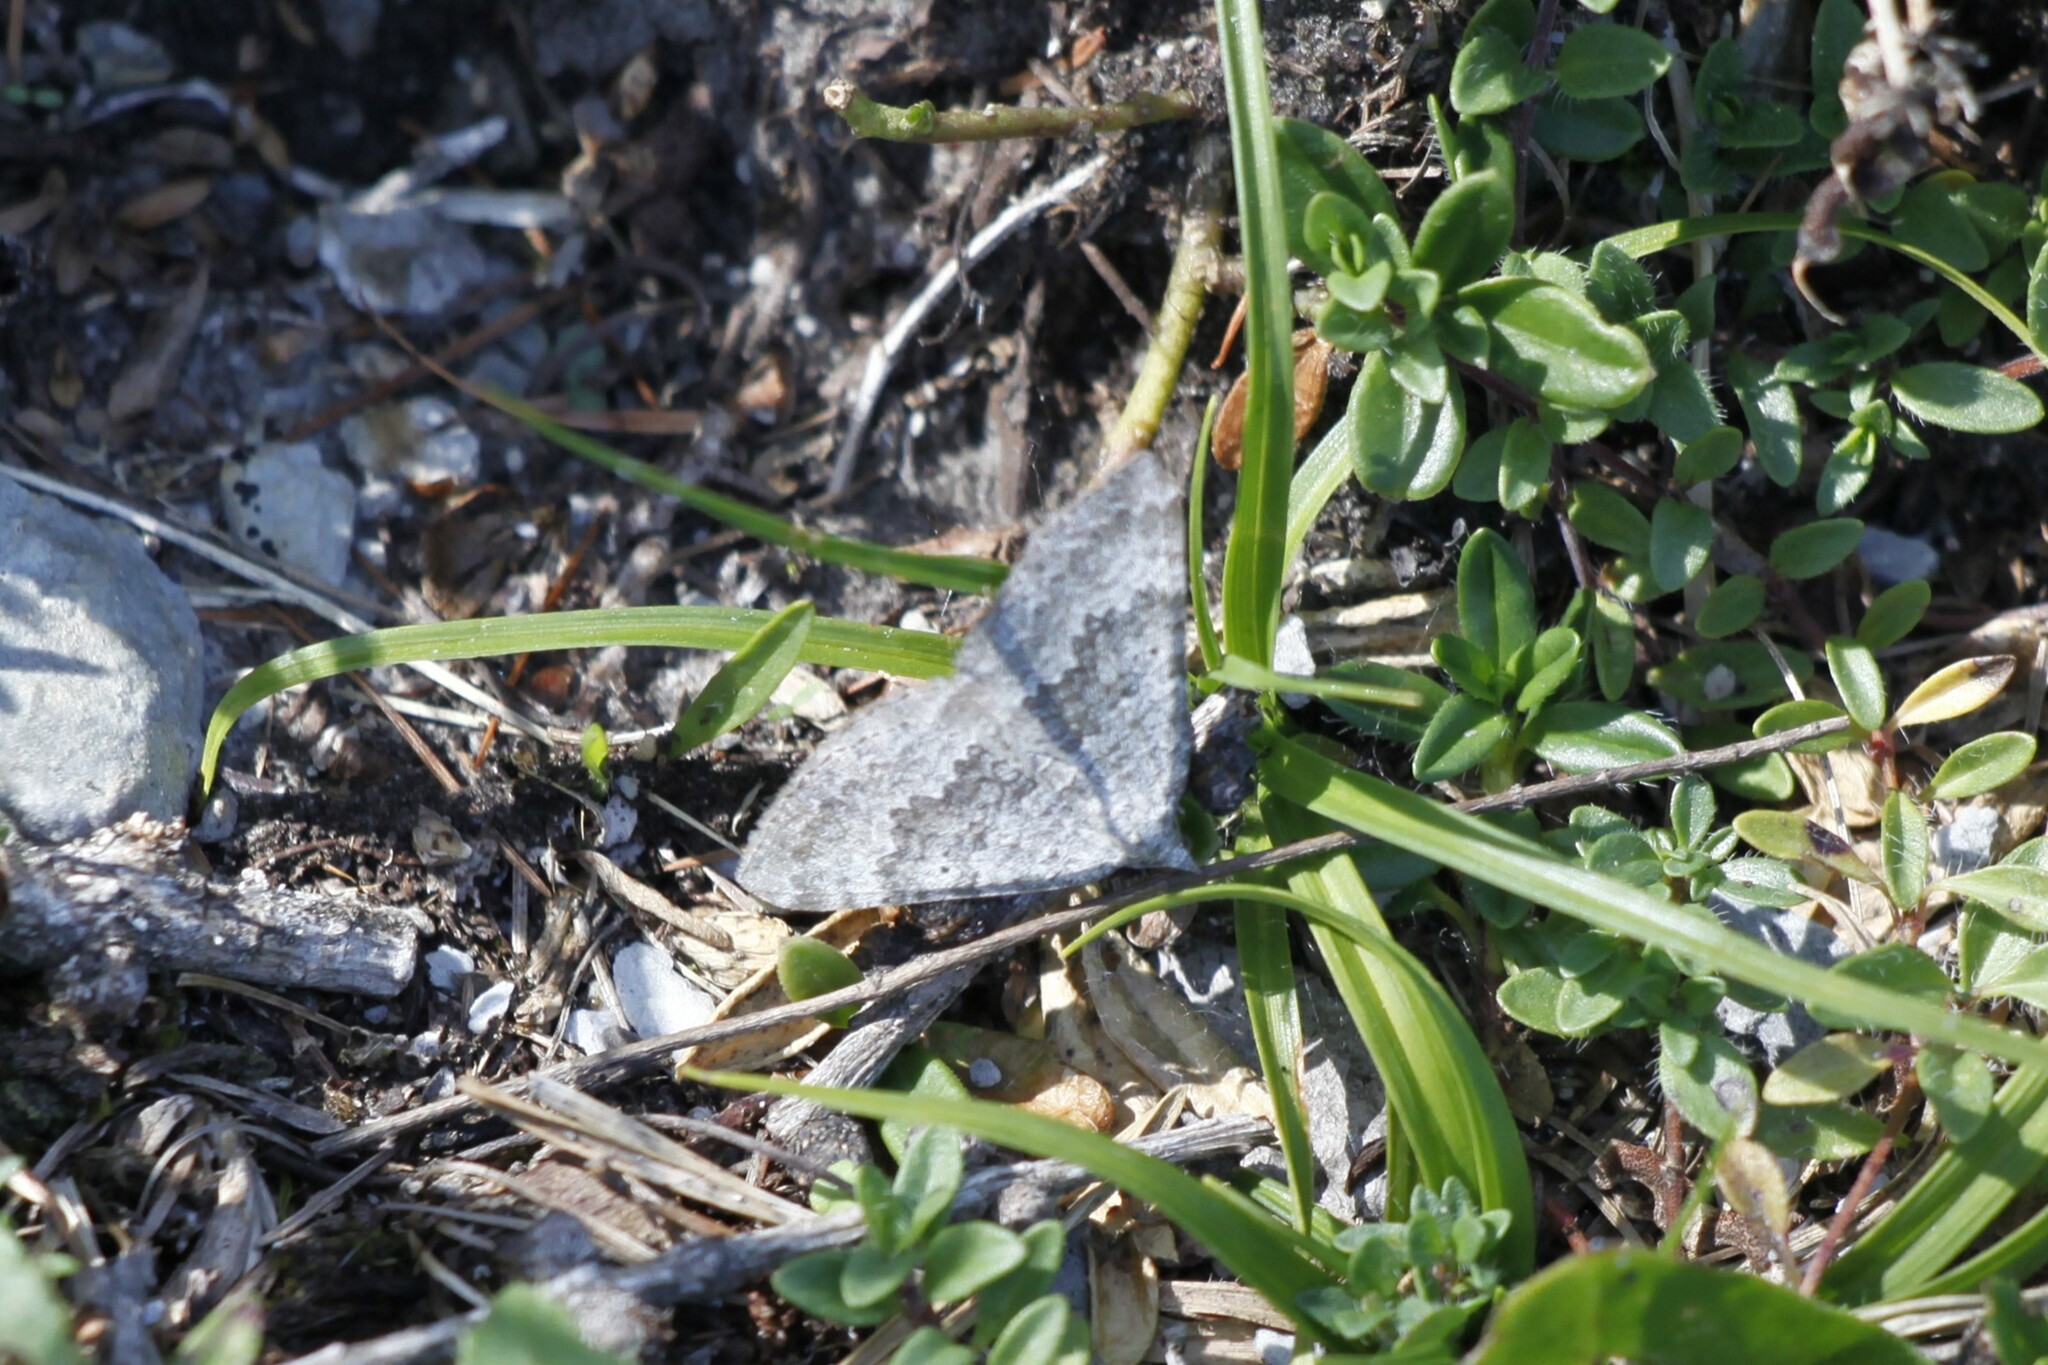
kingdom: Animalia
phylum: Arthropoda
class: Insecta
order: Lepidoptera
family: Geometridae
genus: Scotopteryx
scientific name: Scotopteryx bipunctaria
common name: Chalk carpet
